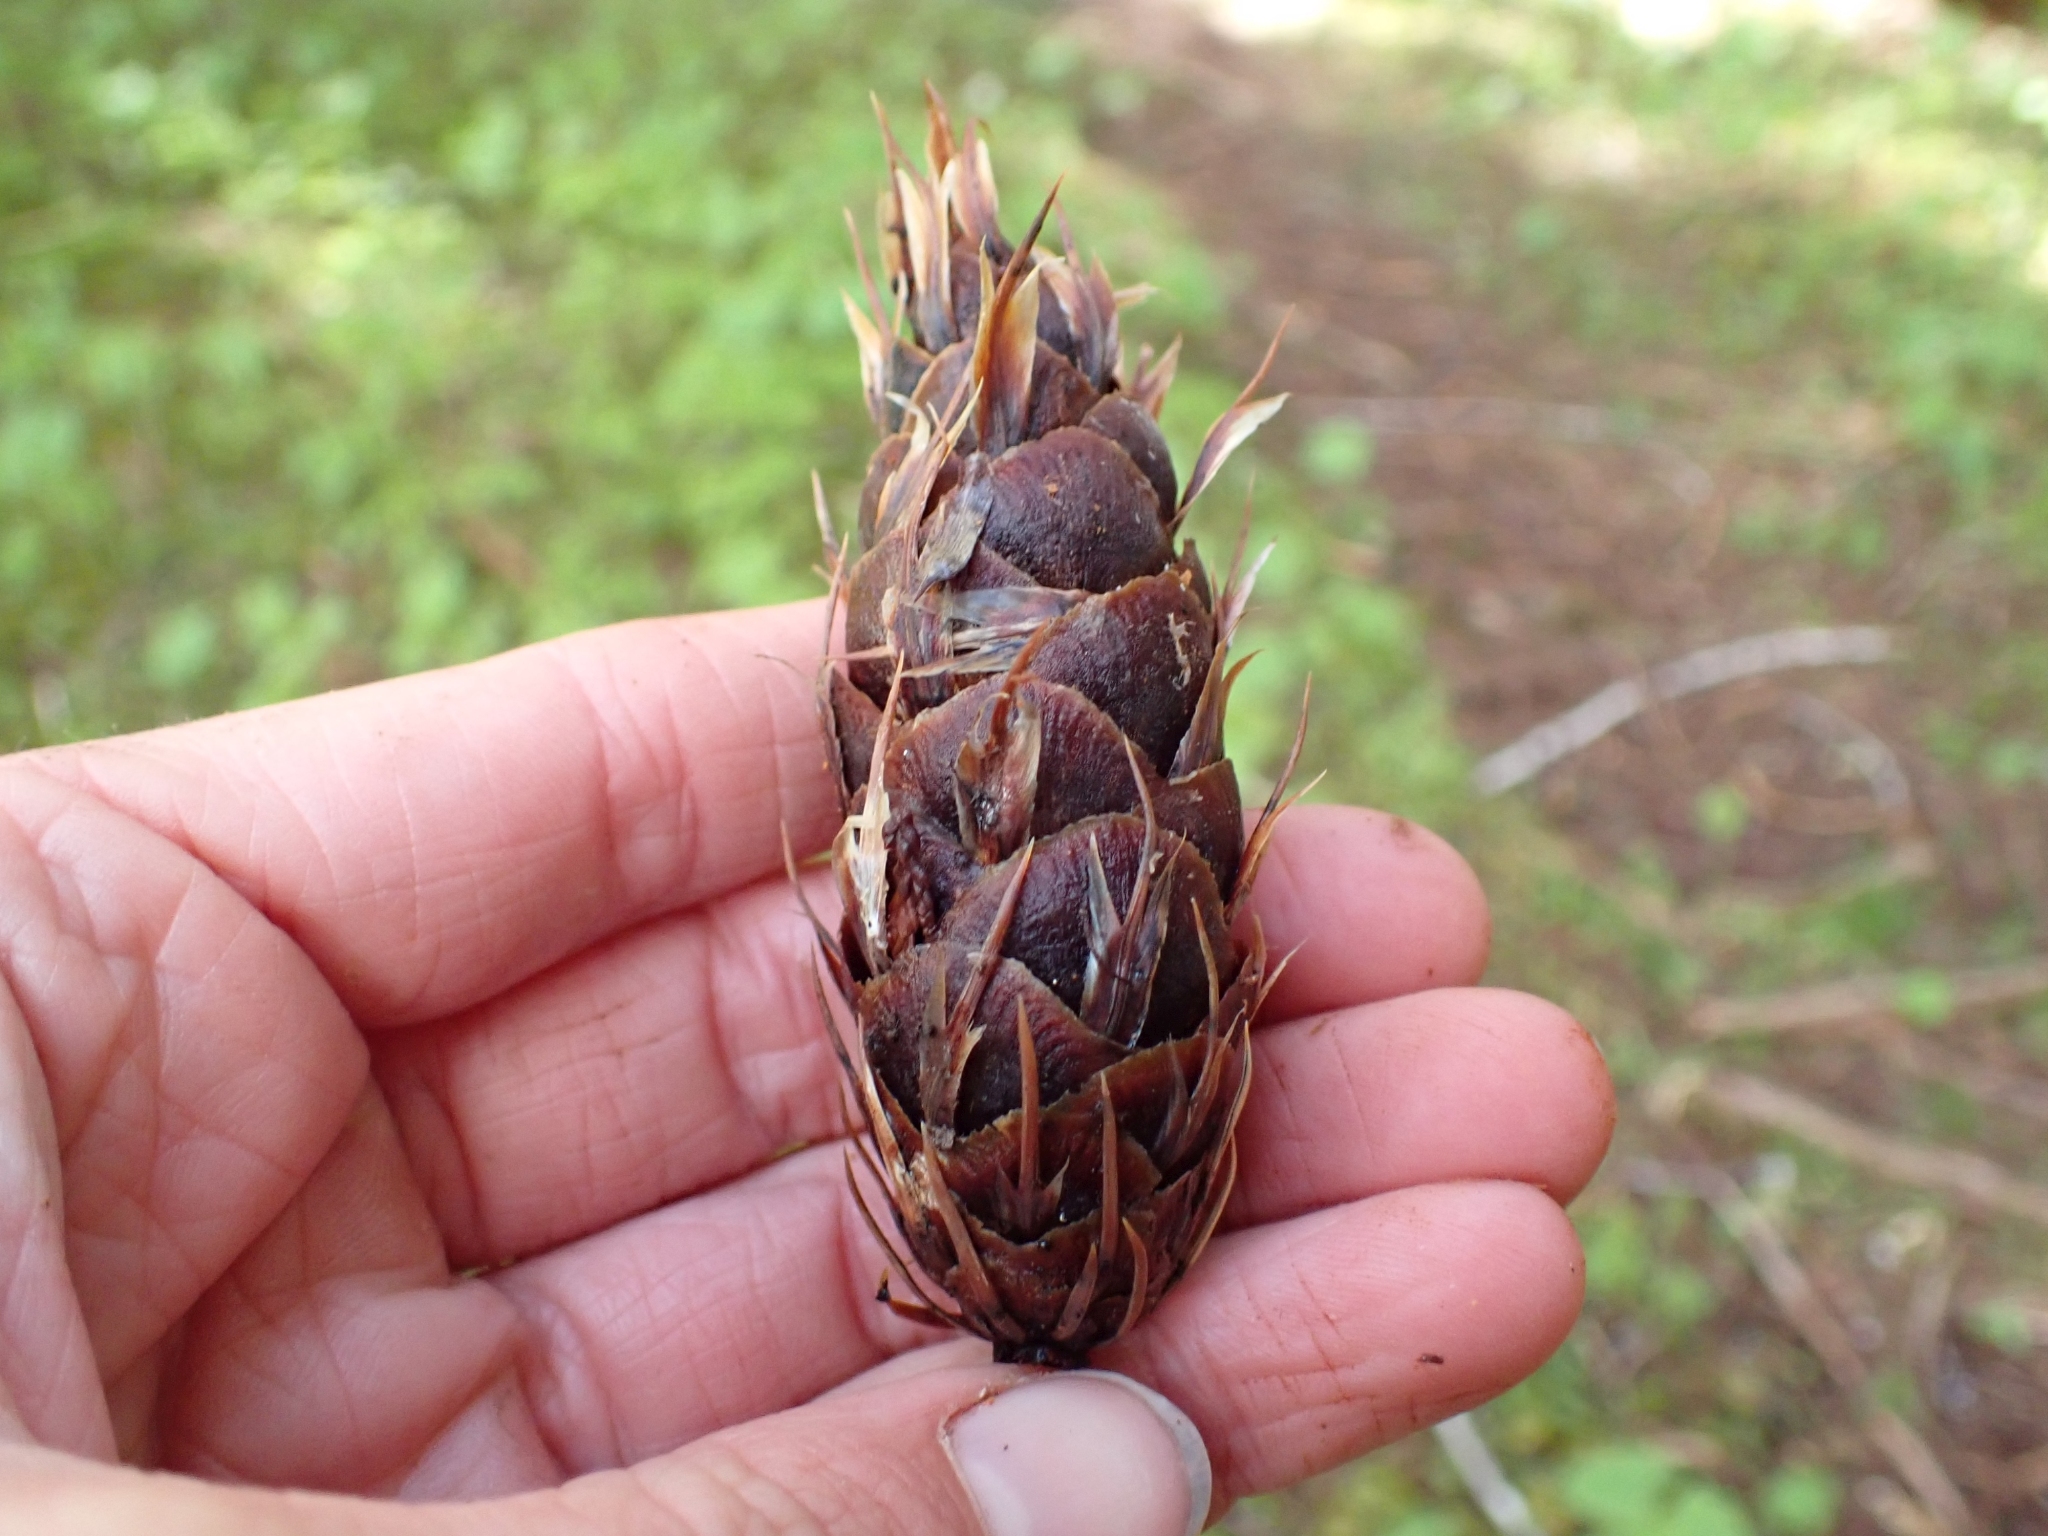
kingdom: Plantae
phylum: Tracheophyta
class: Pinopsida
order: Pinales
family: Pinaceae
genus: Pseudotsuga
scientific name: Pseudotsuga menziesii
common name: Douglas fir
